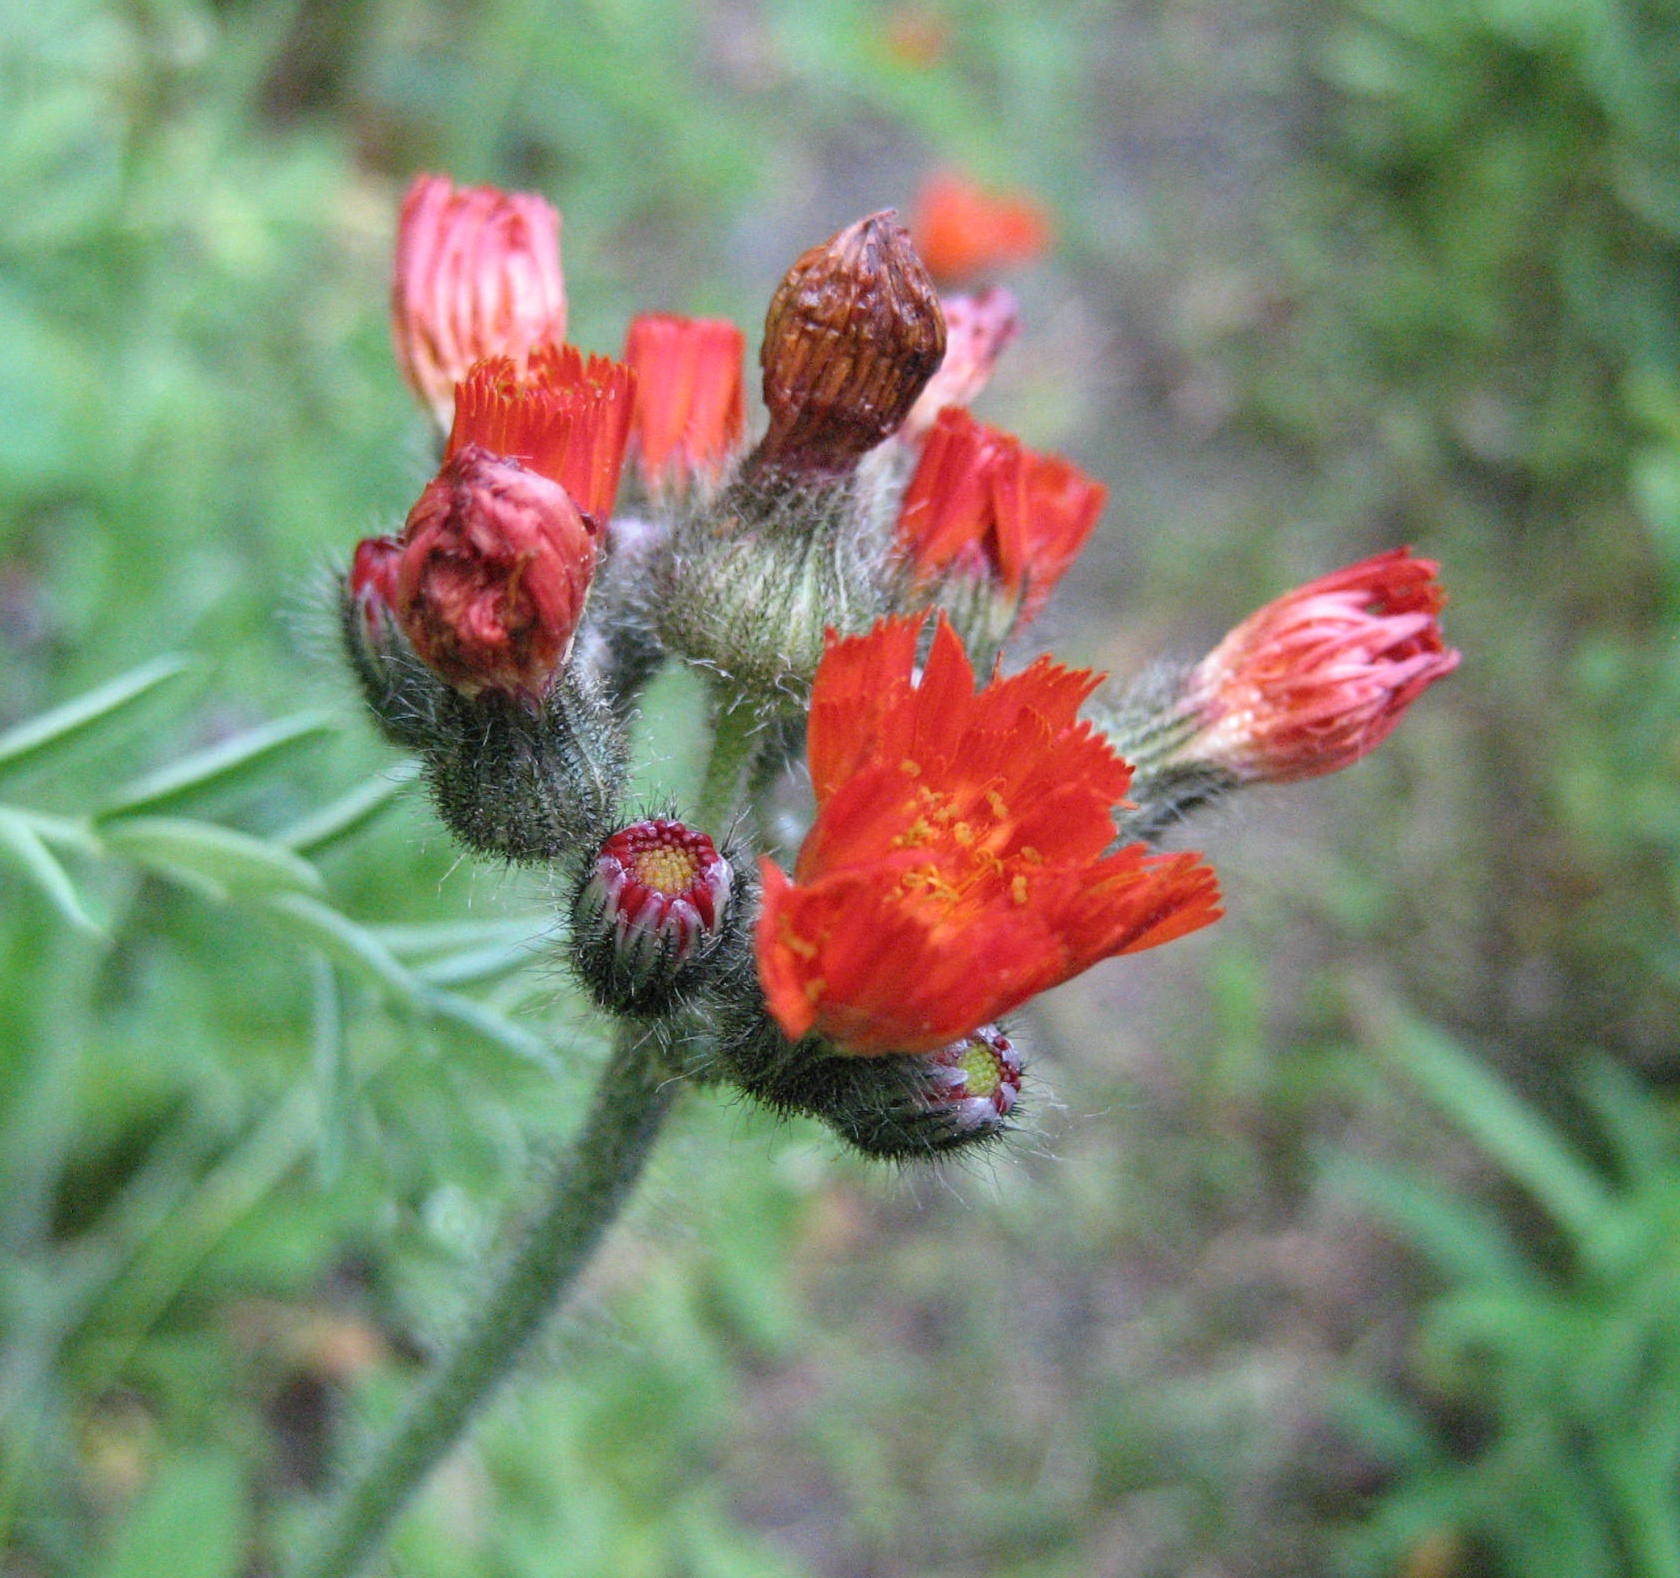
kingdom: Plantae
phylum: Tracheophyta
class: Magnoliopsida
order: Asterales
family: Asteraceae
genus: Pilosella
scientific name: Pilosella aurantiaca
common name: Fox-and-cubs
